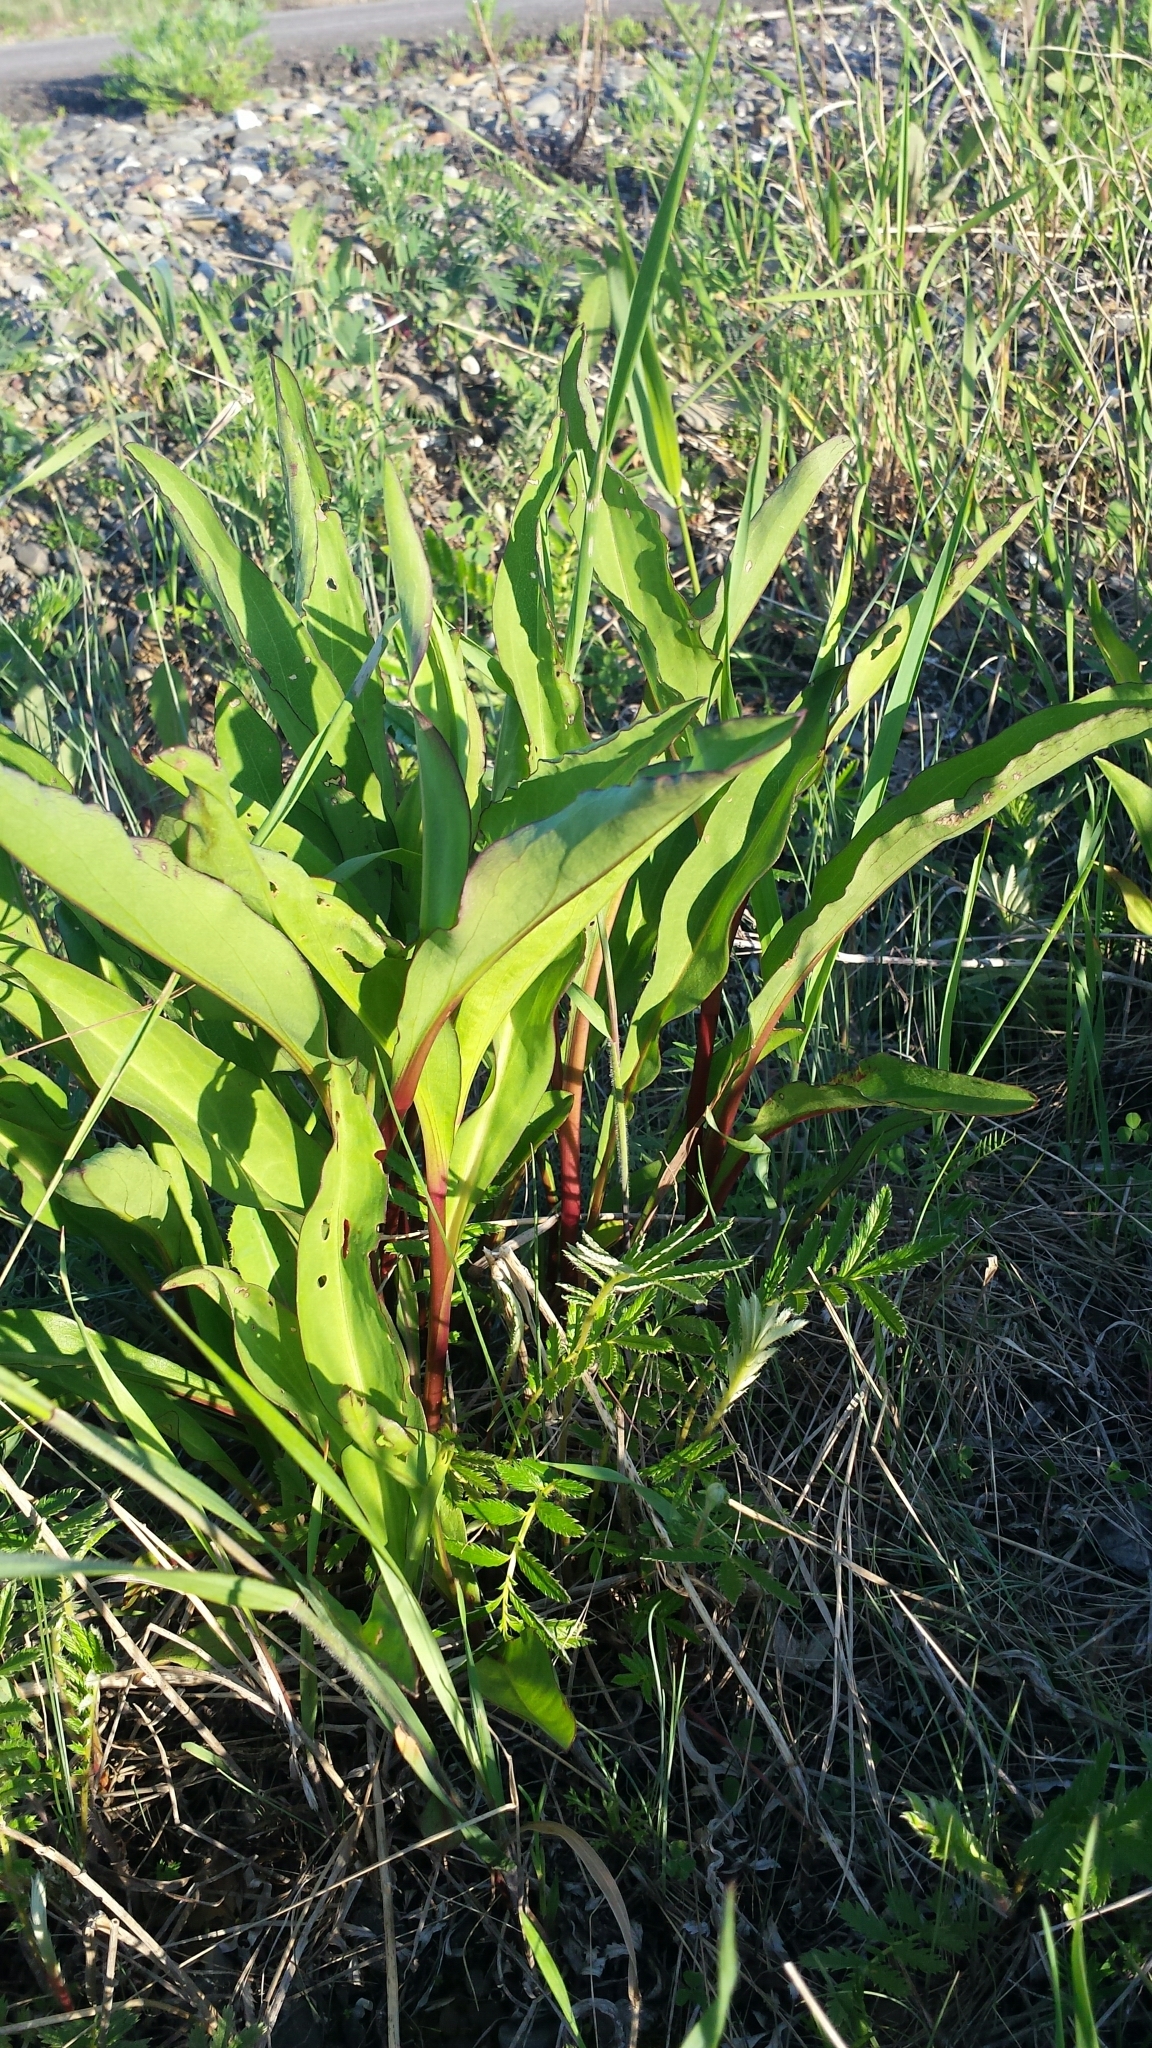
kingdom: Plantae
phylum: Tracheophyta
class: Magnoliopsida
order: Asterales
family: Asteraceae
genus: Solidago
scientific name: Solidago sempervirens
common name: Salt-marsh goldenrod
